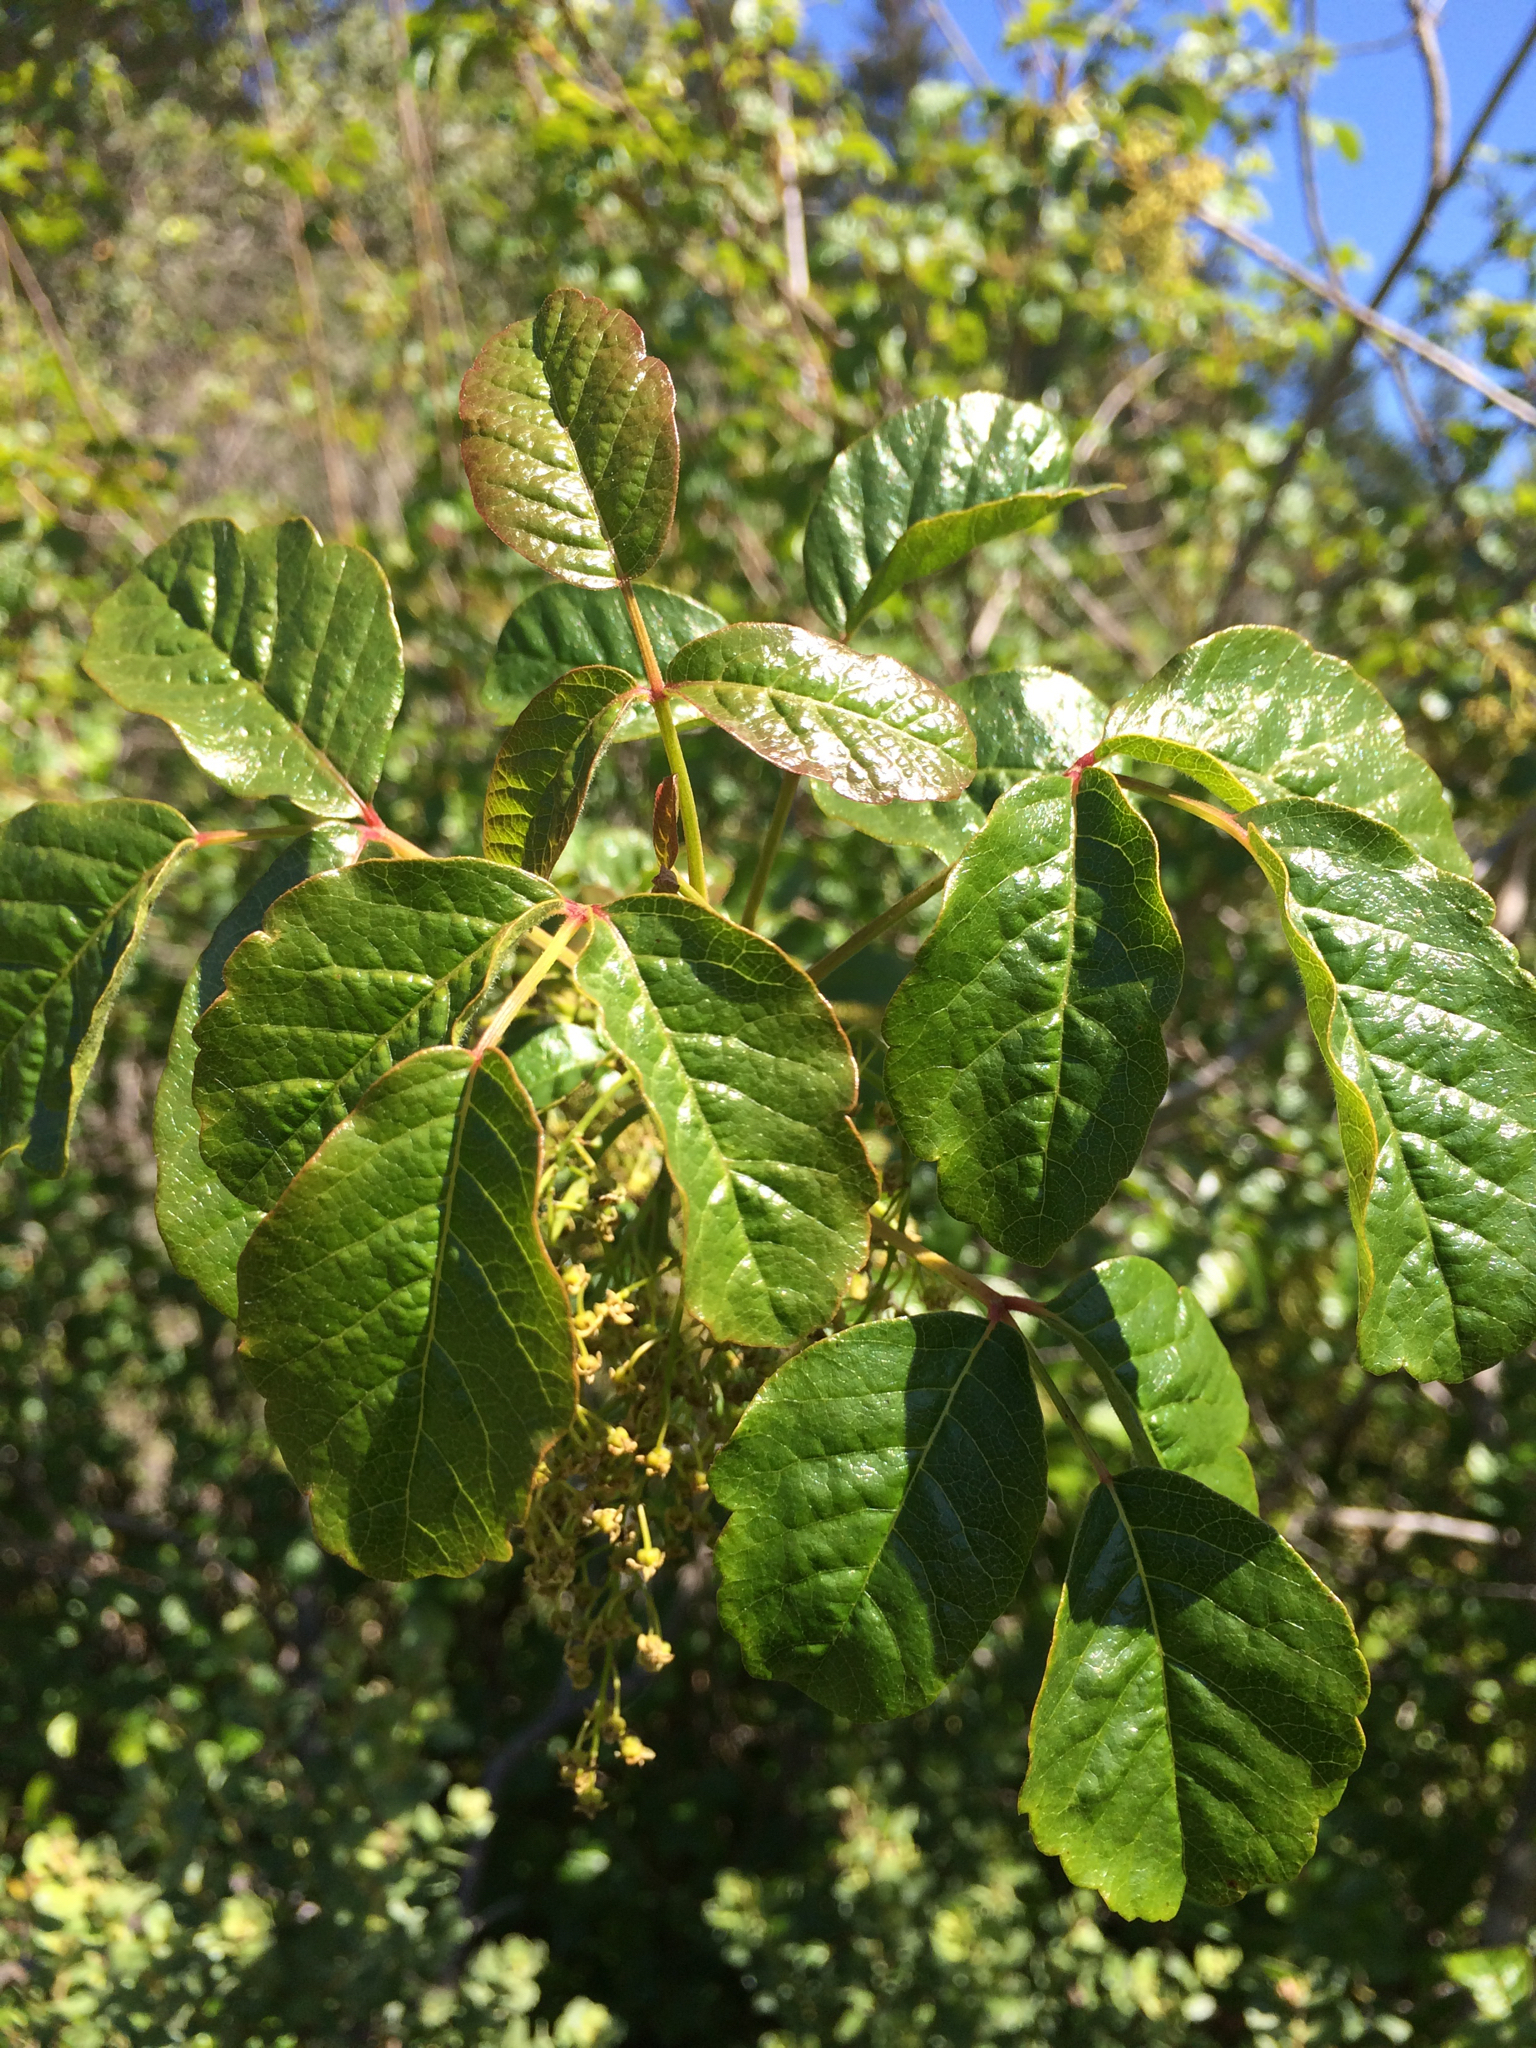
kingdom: Plantae
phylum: Tracheophyta
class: Magnoliopsida
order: Sapindales
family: Anacardiaceae
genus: Toxicodendron
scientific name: Toxicodendron diversilobum
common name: Pacific poison-oak
